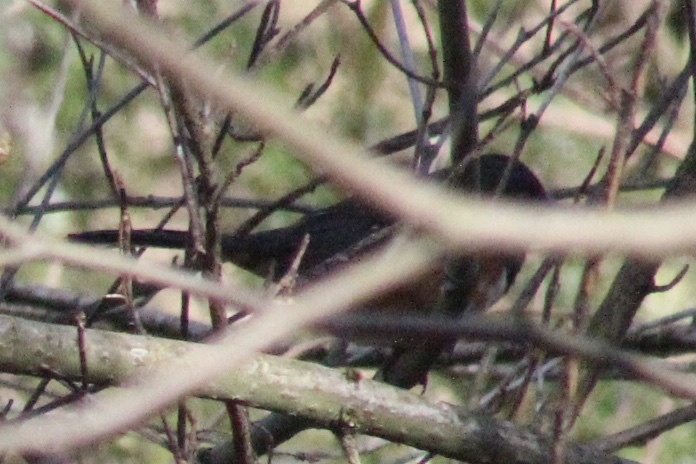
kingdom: Animalia
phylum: Chordata
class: Aves
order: Passeriformes
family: Passerellidae
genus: Pipilo
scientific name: Pipilo maculatus
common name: Spotted towhee
